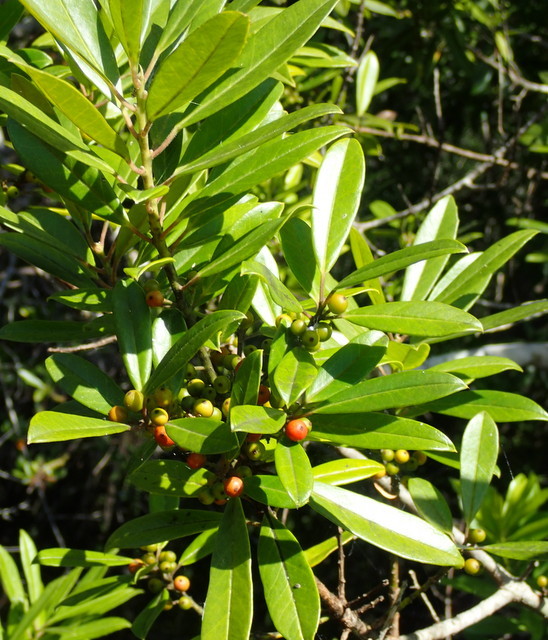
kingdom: Plantae
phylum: Tracheophyta
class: Magnoliopsida
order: Aquifoliales
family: Aquifoliaceae
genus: Ilex
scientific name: Ilex cassine
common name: Dahoon
